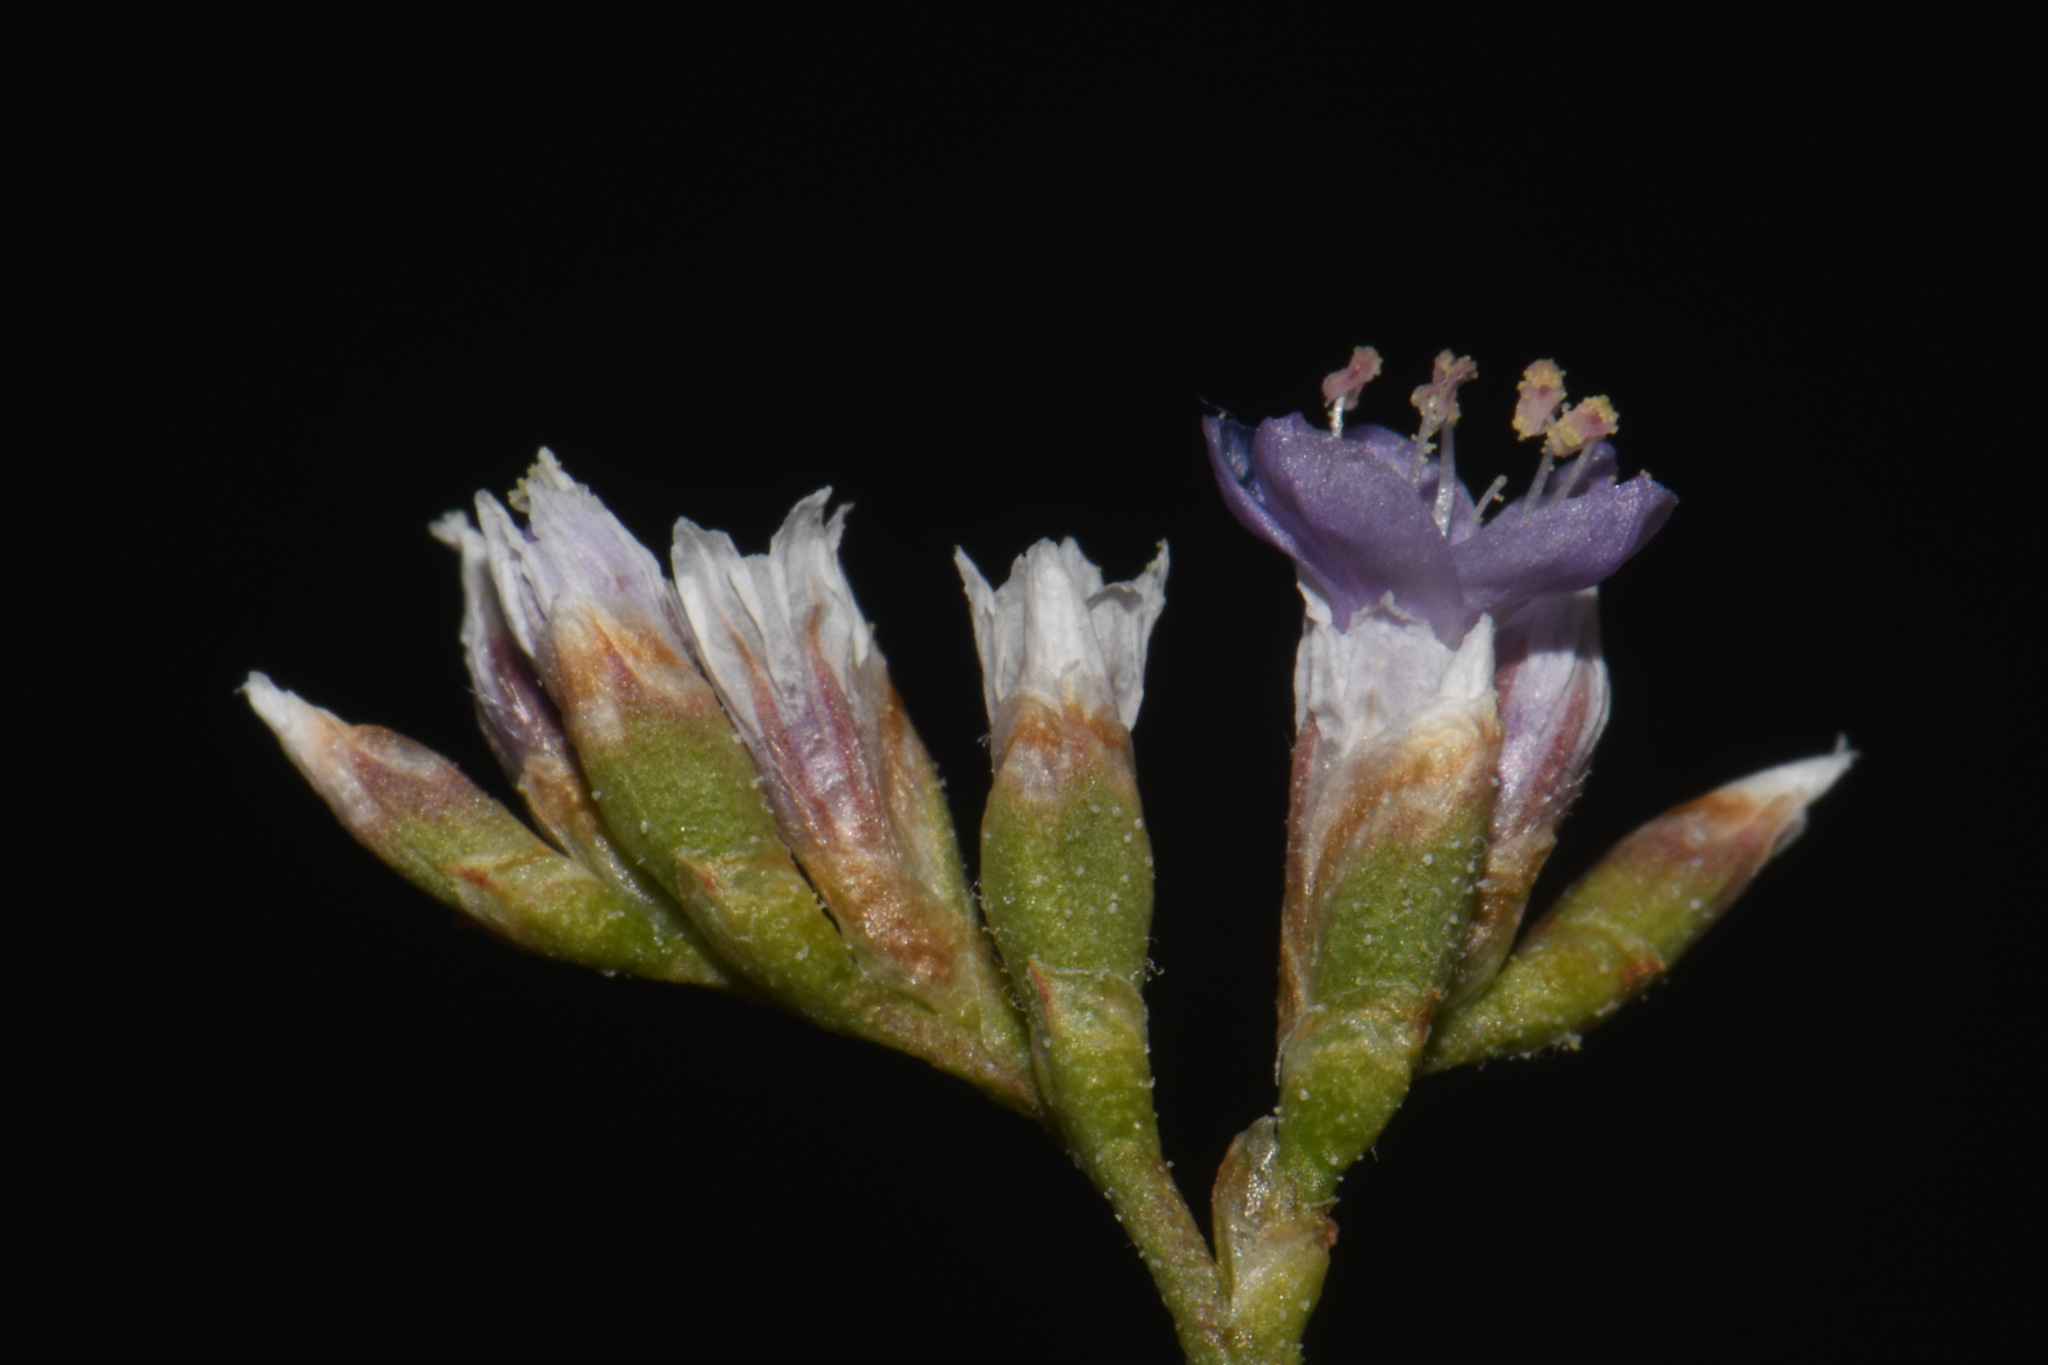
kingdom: Plantae
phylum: Tracheophyta
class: Magnoliopsida
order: Caryophyllales
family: Plumbaginaceae
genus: Limonium
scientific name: Limonium limbatum
